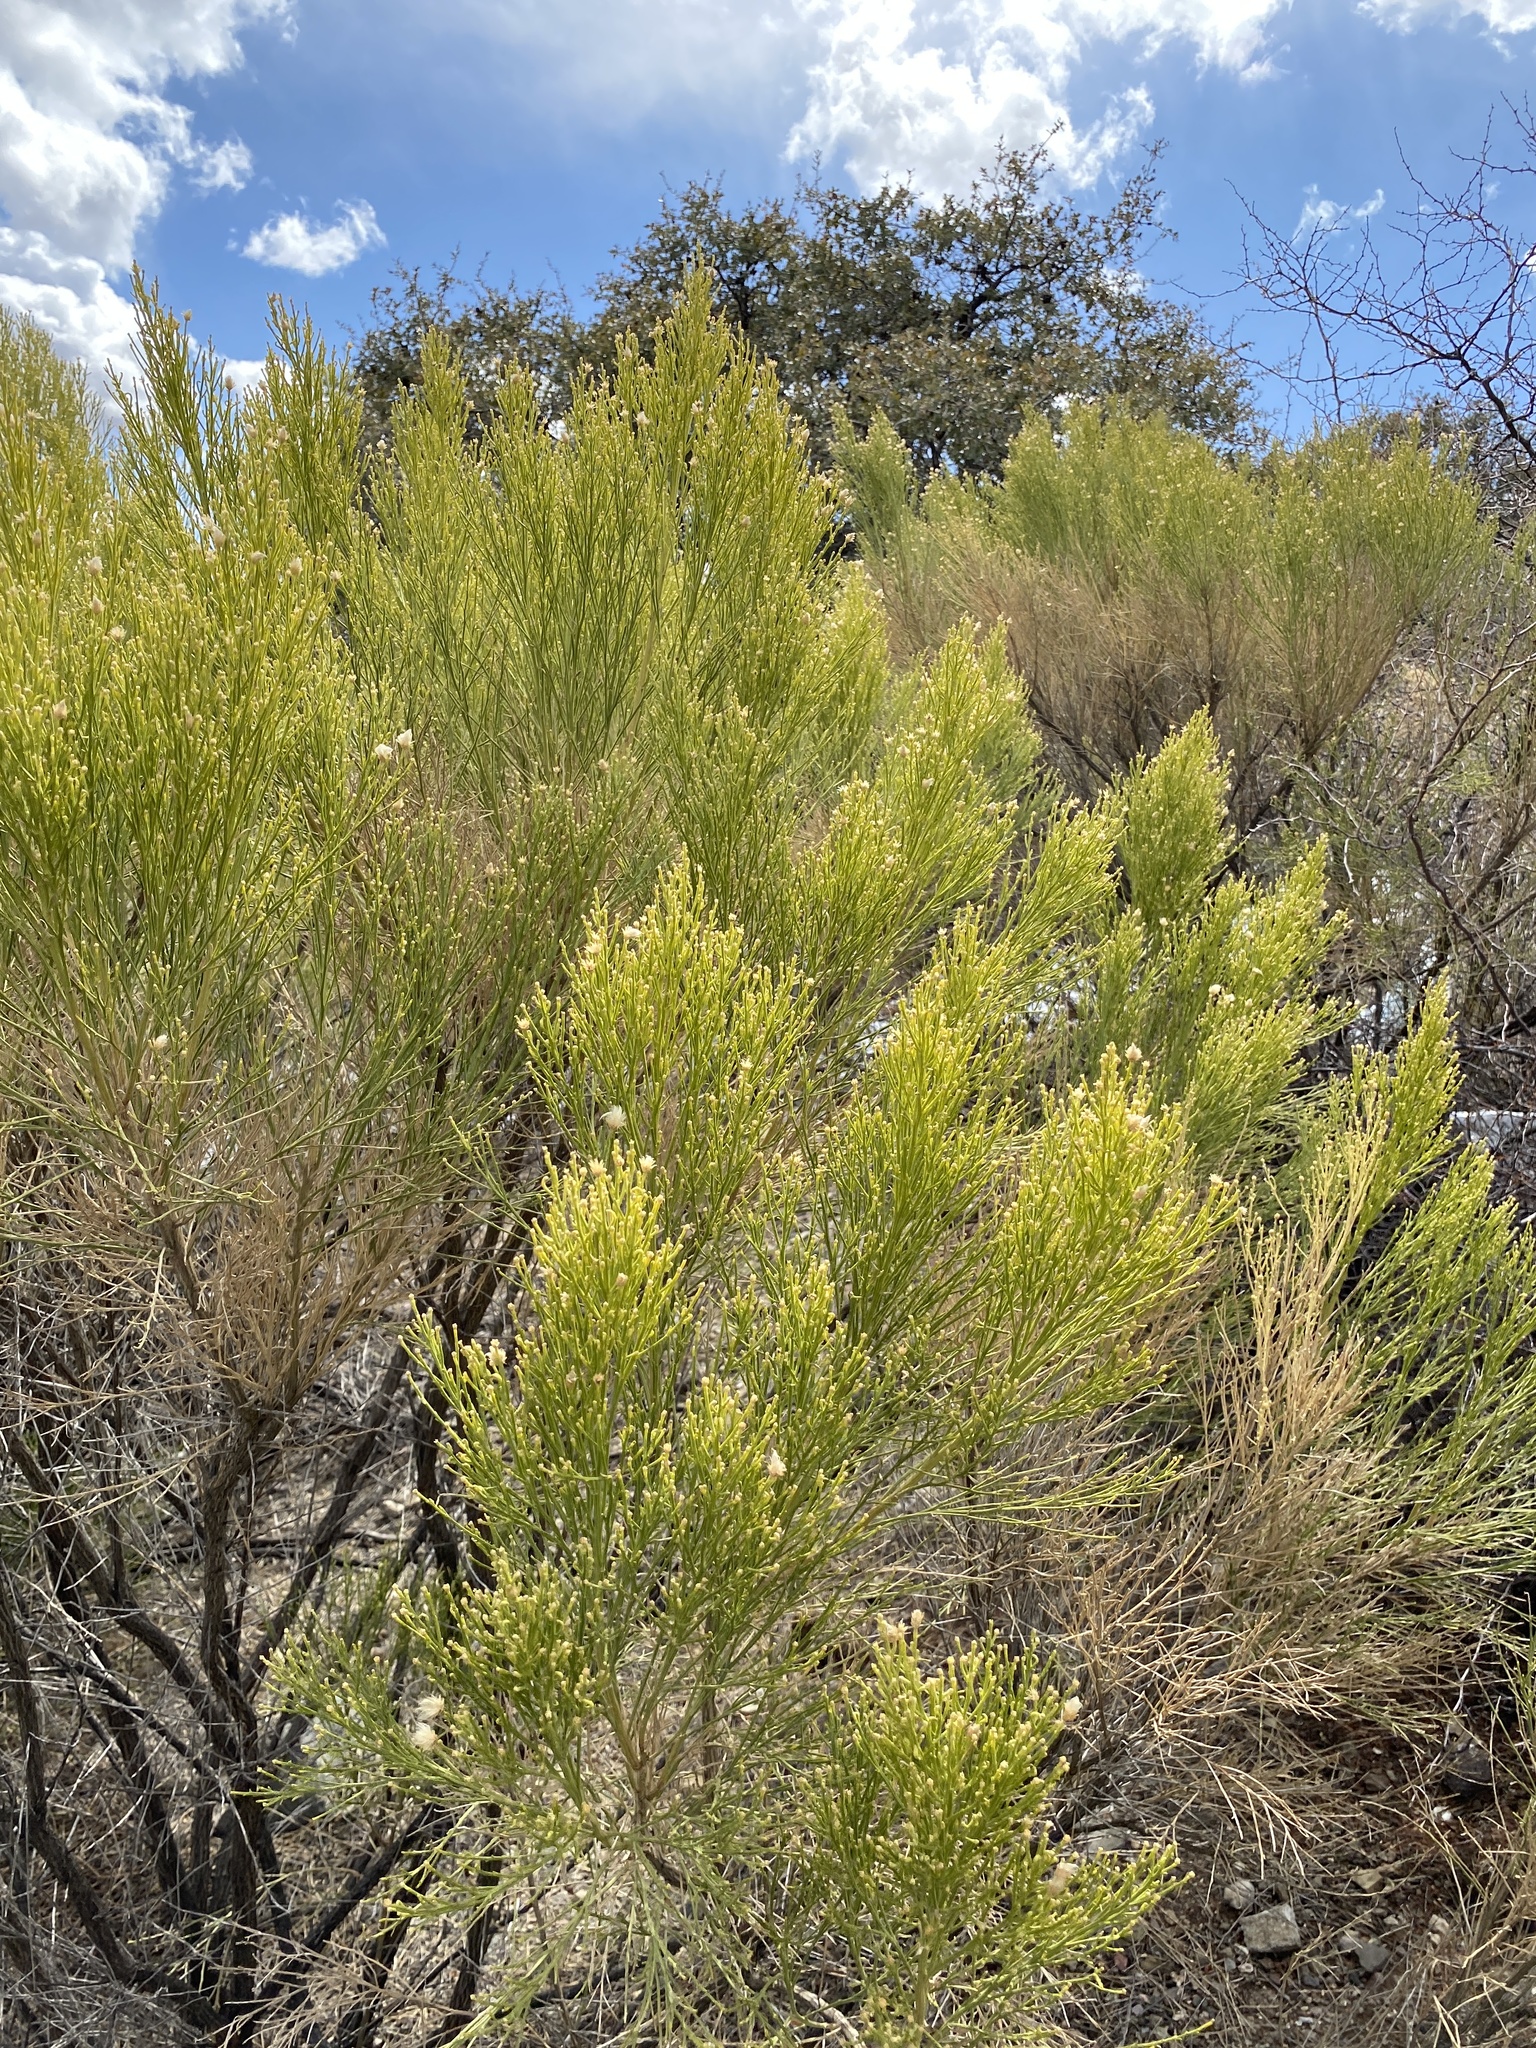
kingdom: Plantae
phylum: Tracheophyta
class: Magnoliopsida
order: Asterales
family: Asteraceae
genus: Baccharis
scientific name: Baccharis sarothroides
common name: Desert-broom
